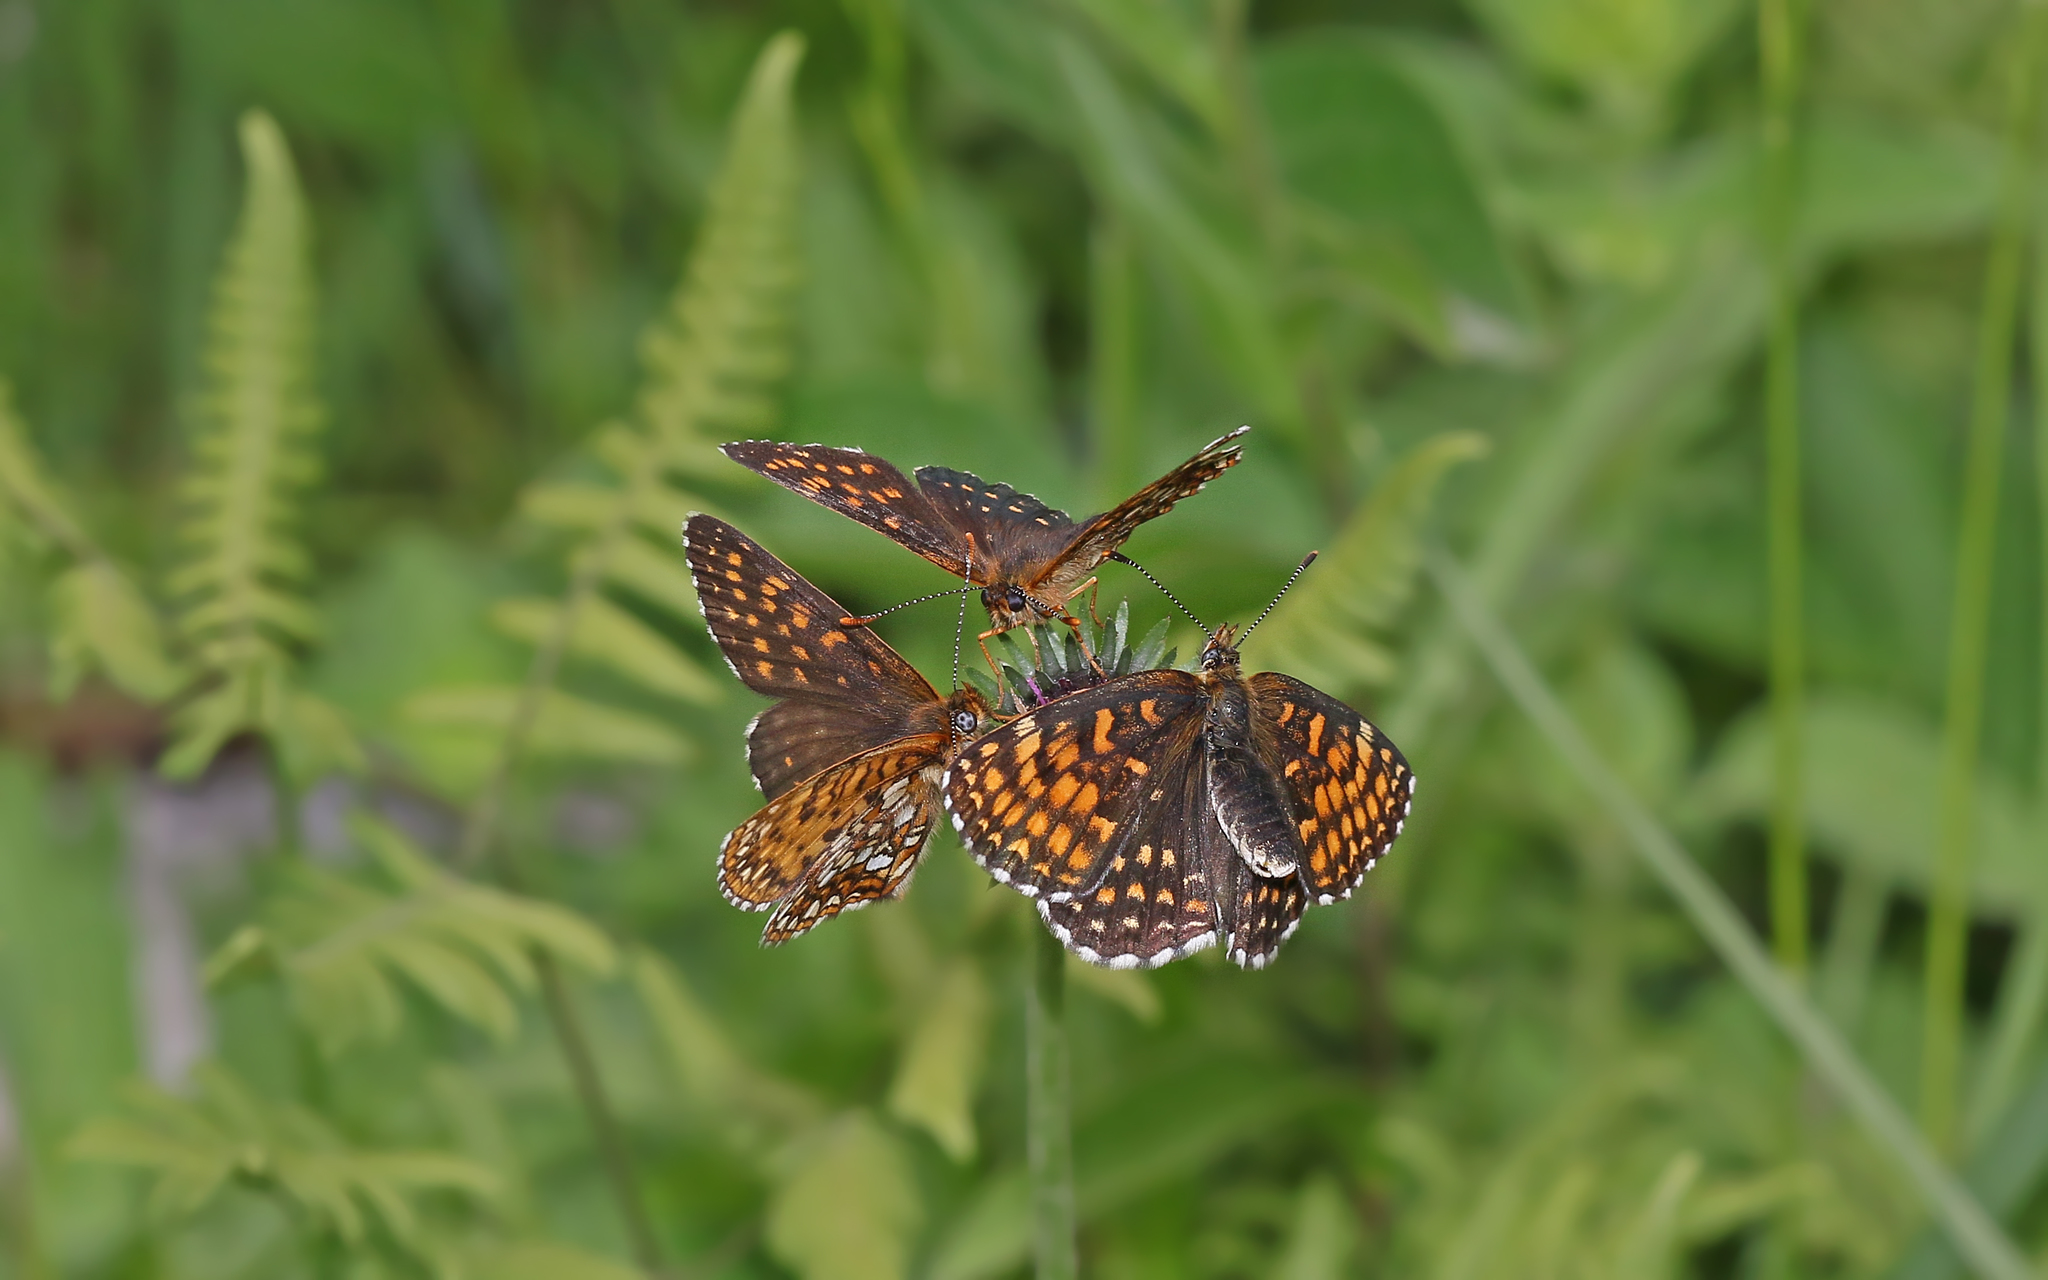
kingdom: Animalia
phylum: Arthropoda
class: Insecta
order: Lepidoptera
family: Nymphalidae
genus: Melitaea
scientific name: Melitaea diamina
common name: False heath fritillary
